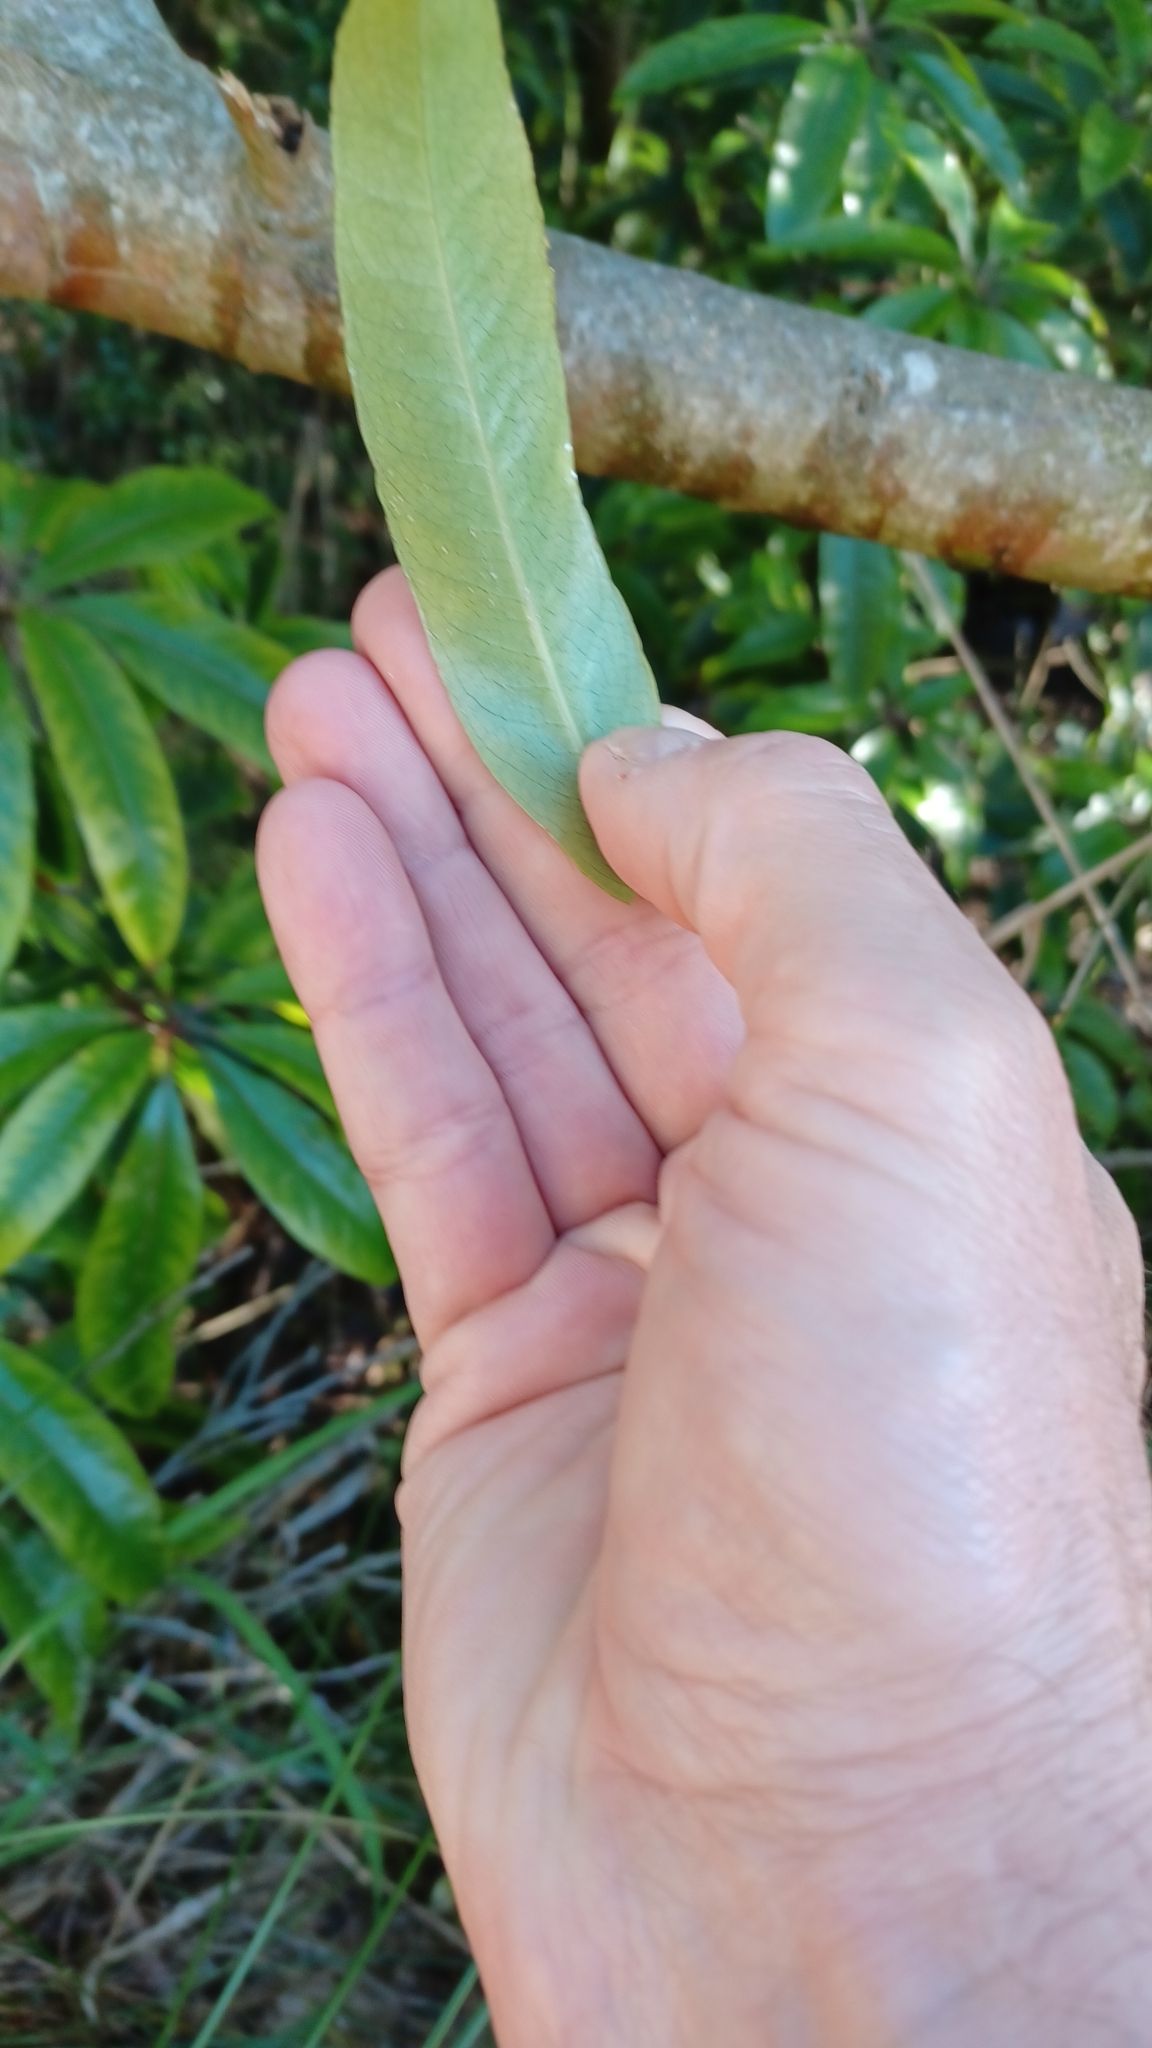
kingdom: Plantae
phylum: Tracheophyta
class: Magnoliopsida
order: Apiales
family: Pittosporaceae
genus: Pittosporum
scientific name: Pittosporum undulatum
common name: Australian cheesewood
